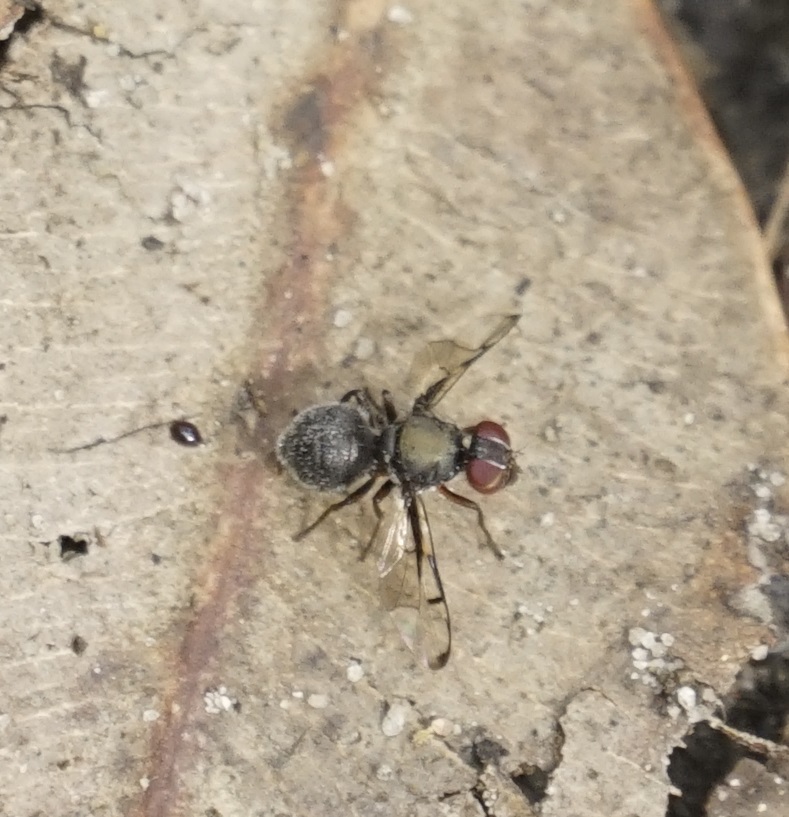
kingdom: Animalia
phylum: Arthropoda
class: Insecta
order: Diptera
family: Platystomatidae
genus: Pogonortalis
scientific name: Pogonortalis doclea
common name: Boatman fly
